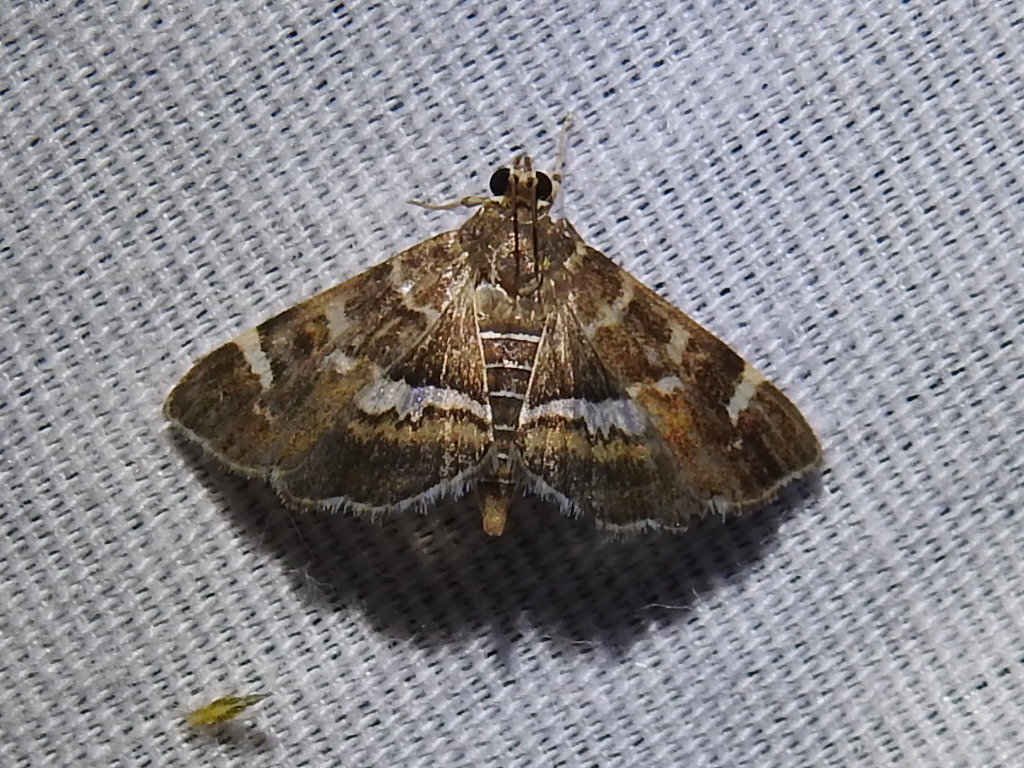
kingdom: Animalia
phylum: Arthropoda
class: Insecta
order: Lepidoptera
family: Crambidae
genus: Hymenia
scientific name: Hymenia perspectalis
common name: Spotted beet webworm
